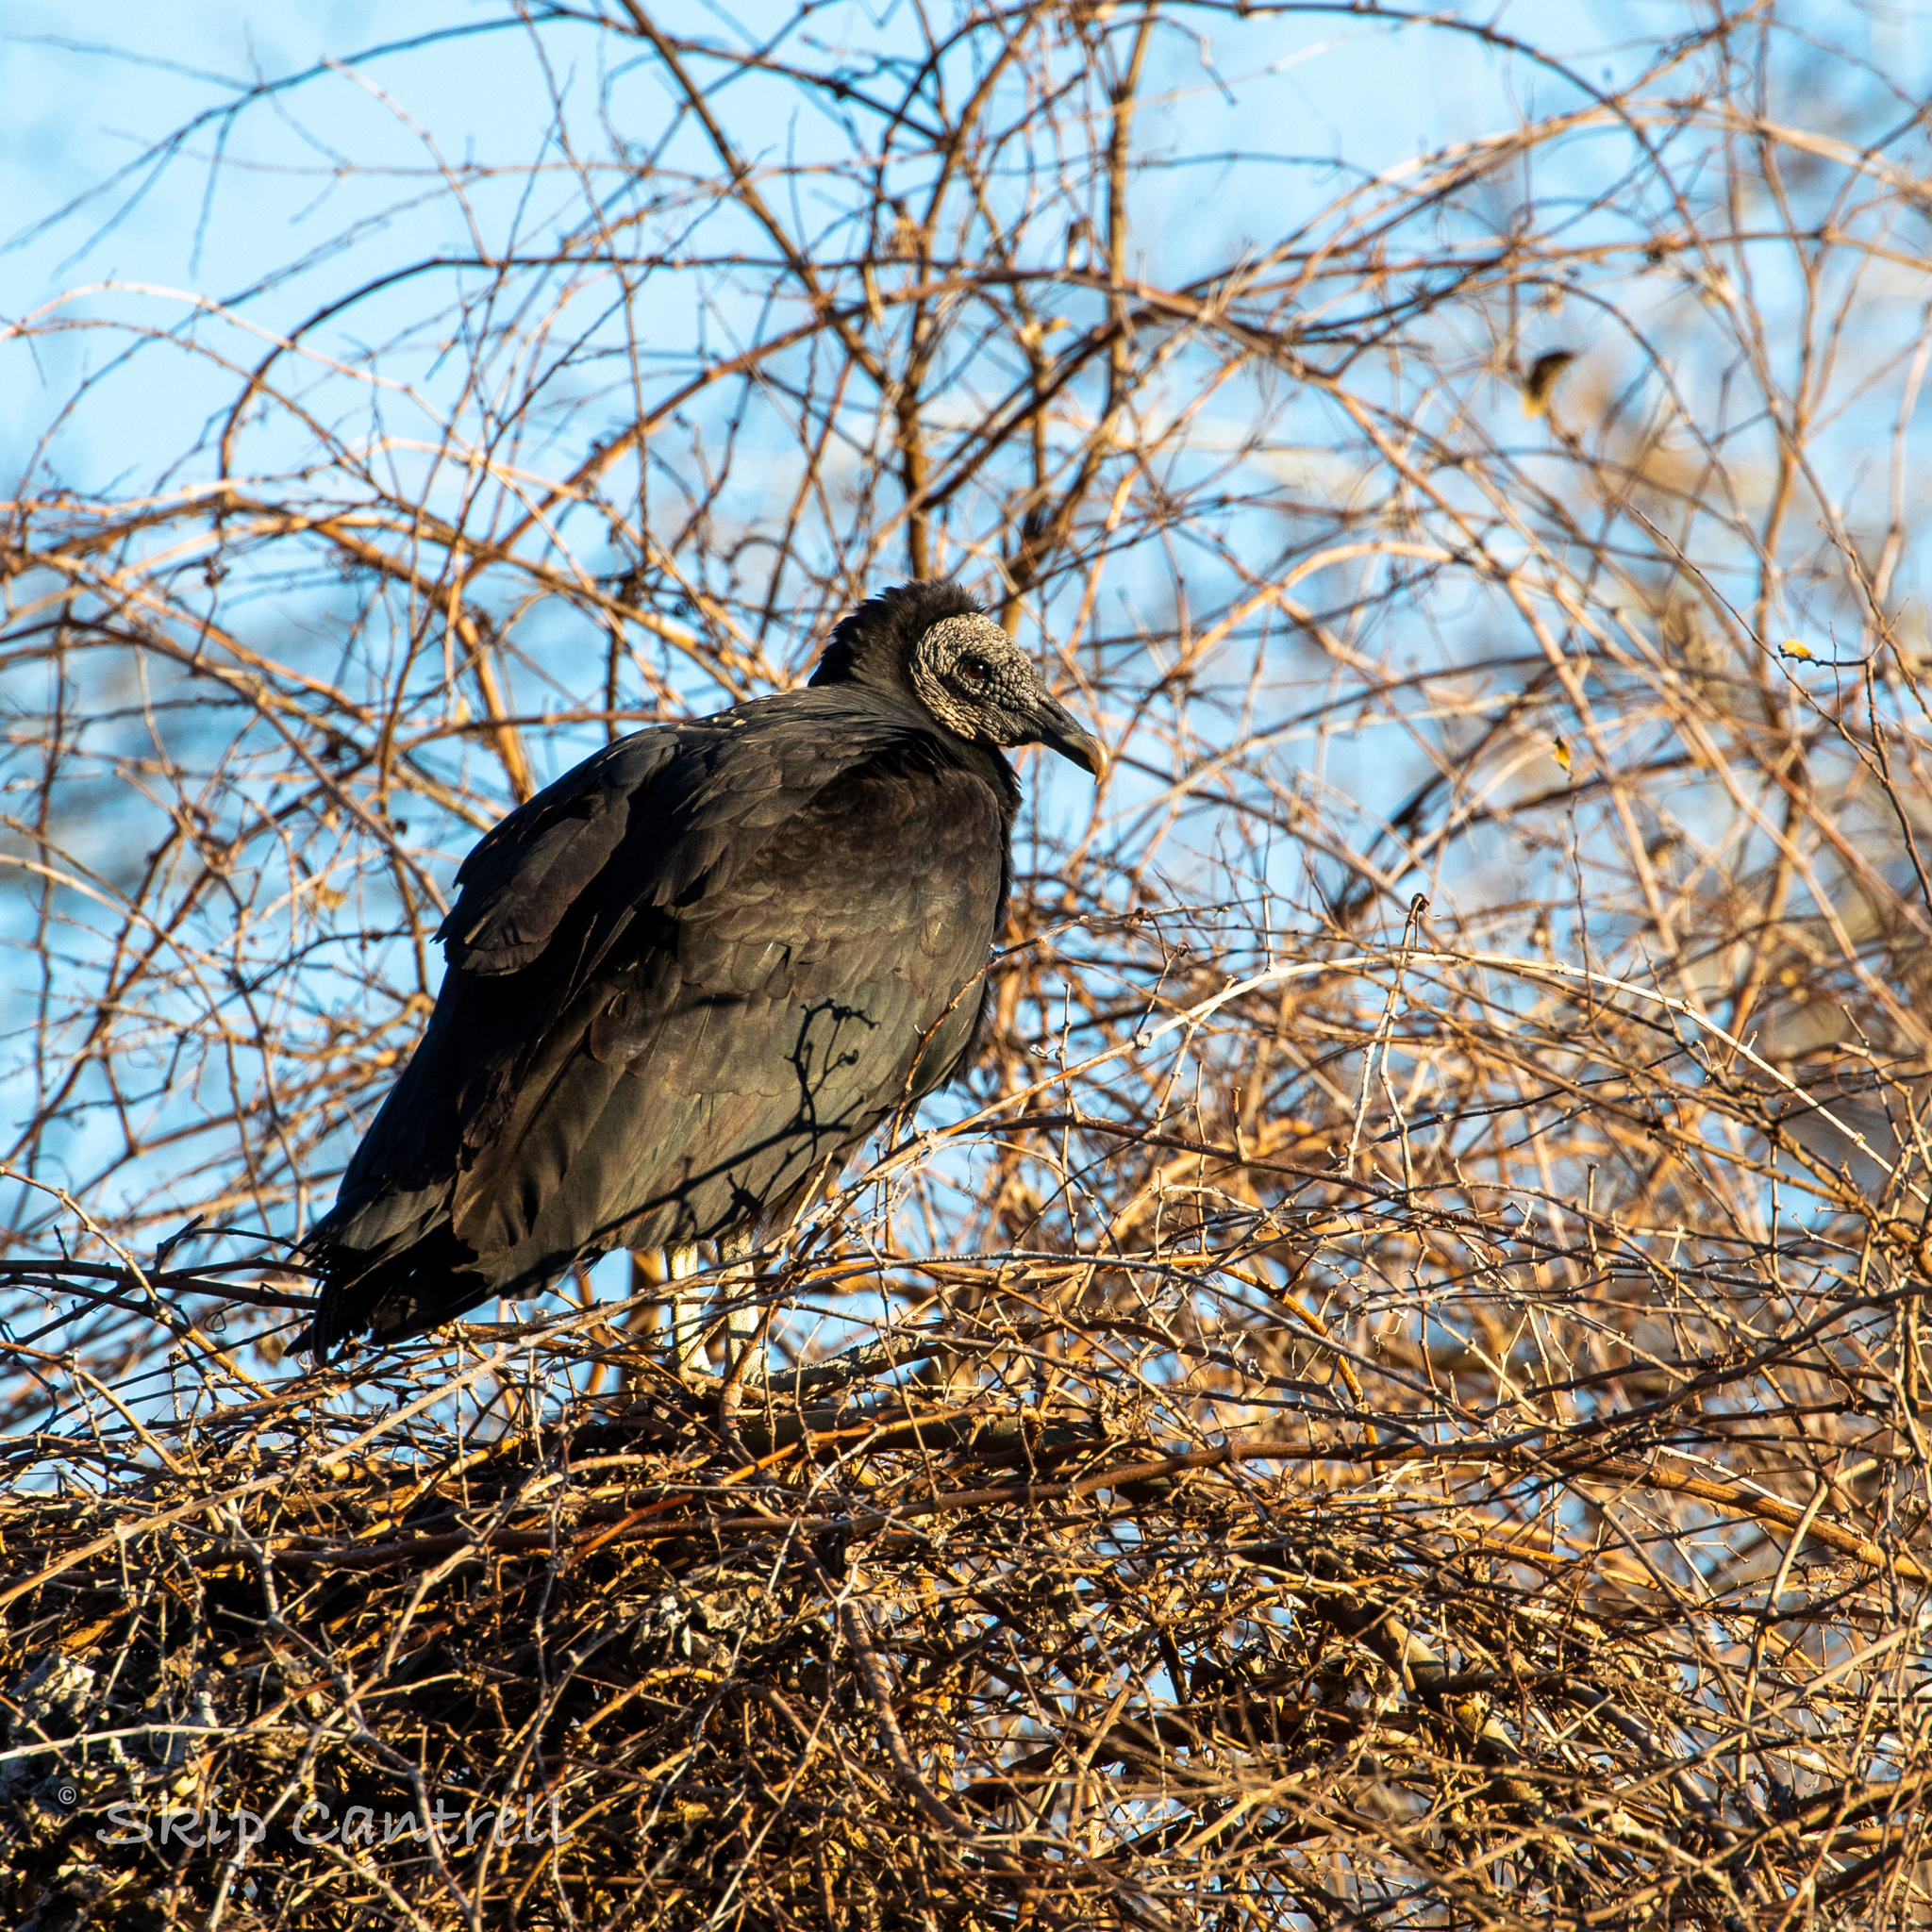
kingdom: Animalia
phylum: Chordata
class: Aves
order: Accipitriformes
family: Cathartidae
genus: Coragyps
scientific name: Coragyps atratus
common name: Black vulture
